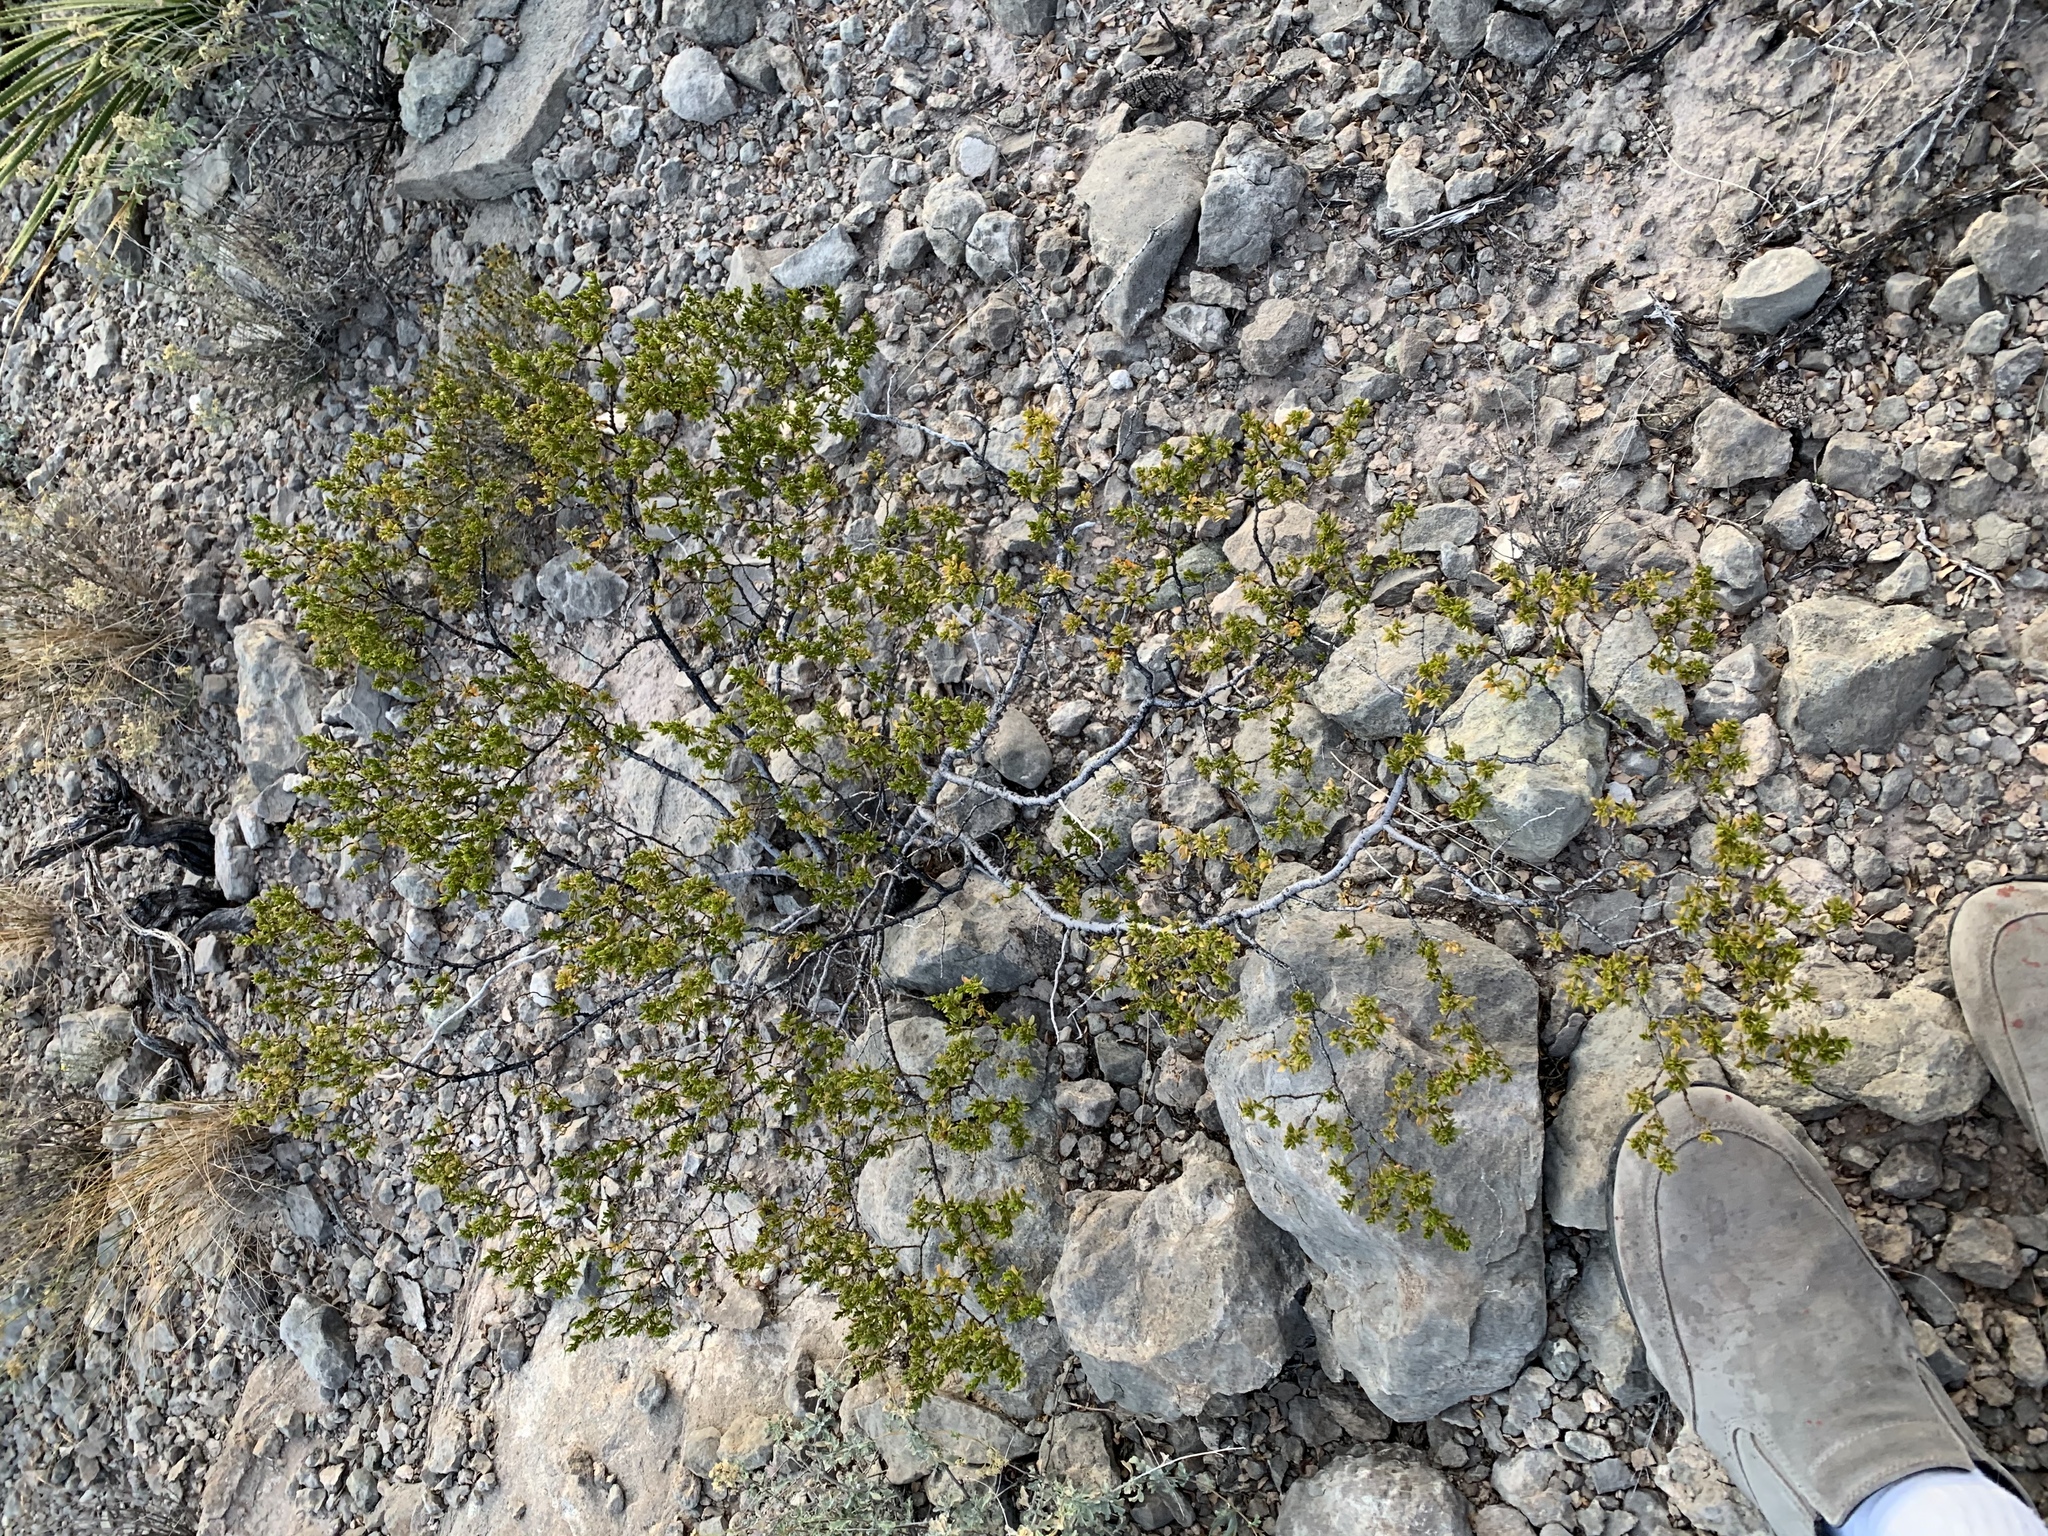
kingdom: Plantae
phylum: Tracheophyta
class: Magnoliopsida
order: Zygophyllales
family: Zygophyllaceae
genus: Larrea
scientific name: Larrea tridentata
